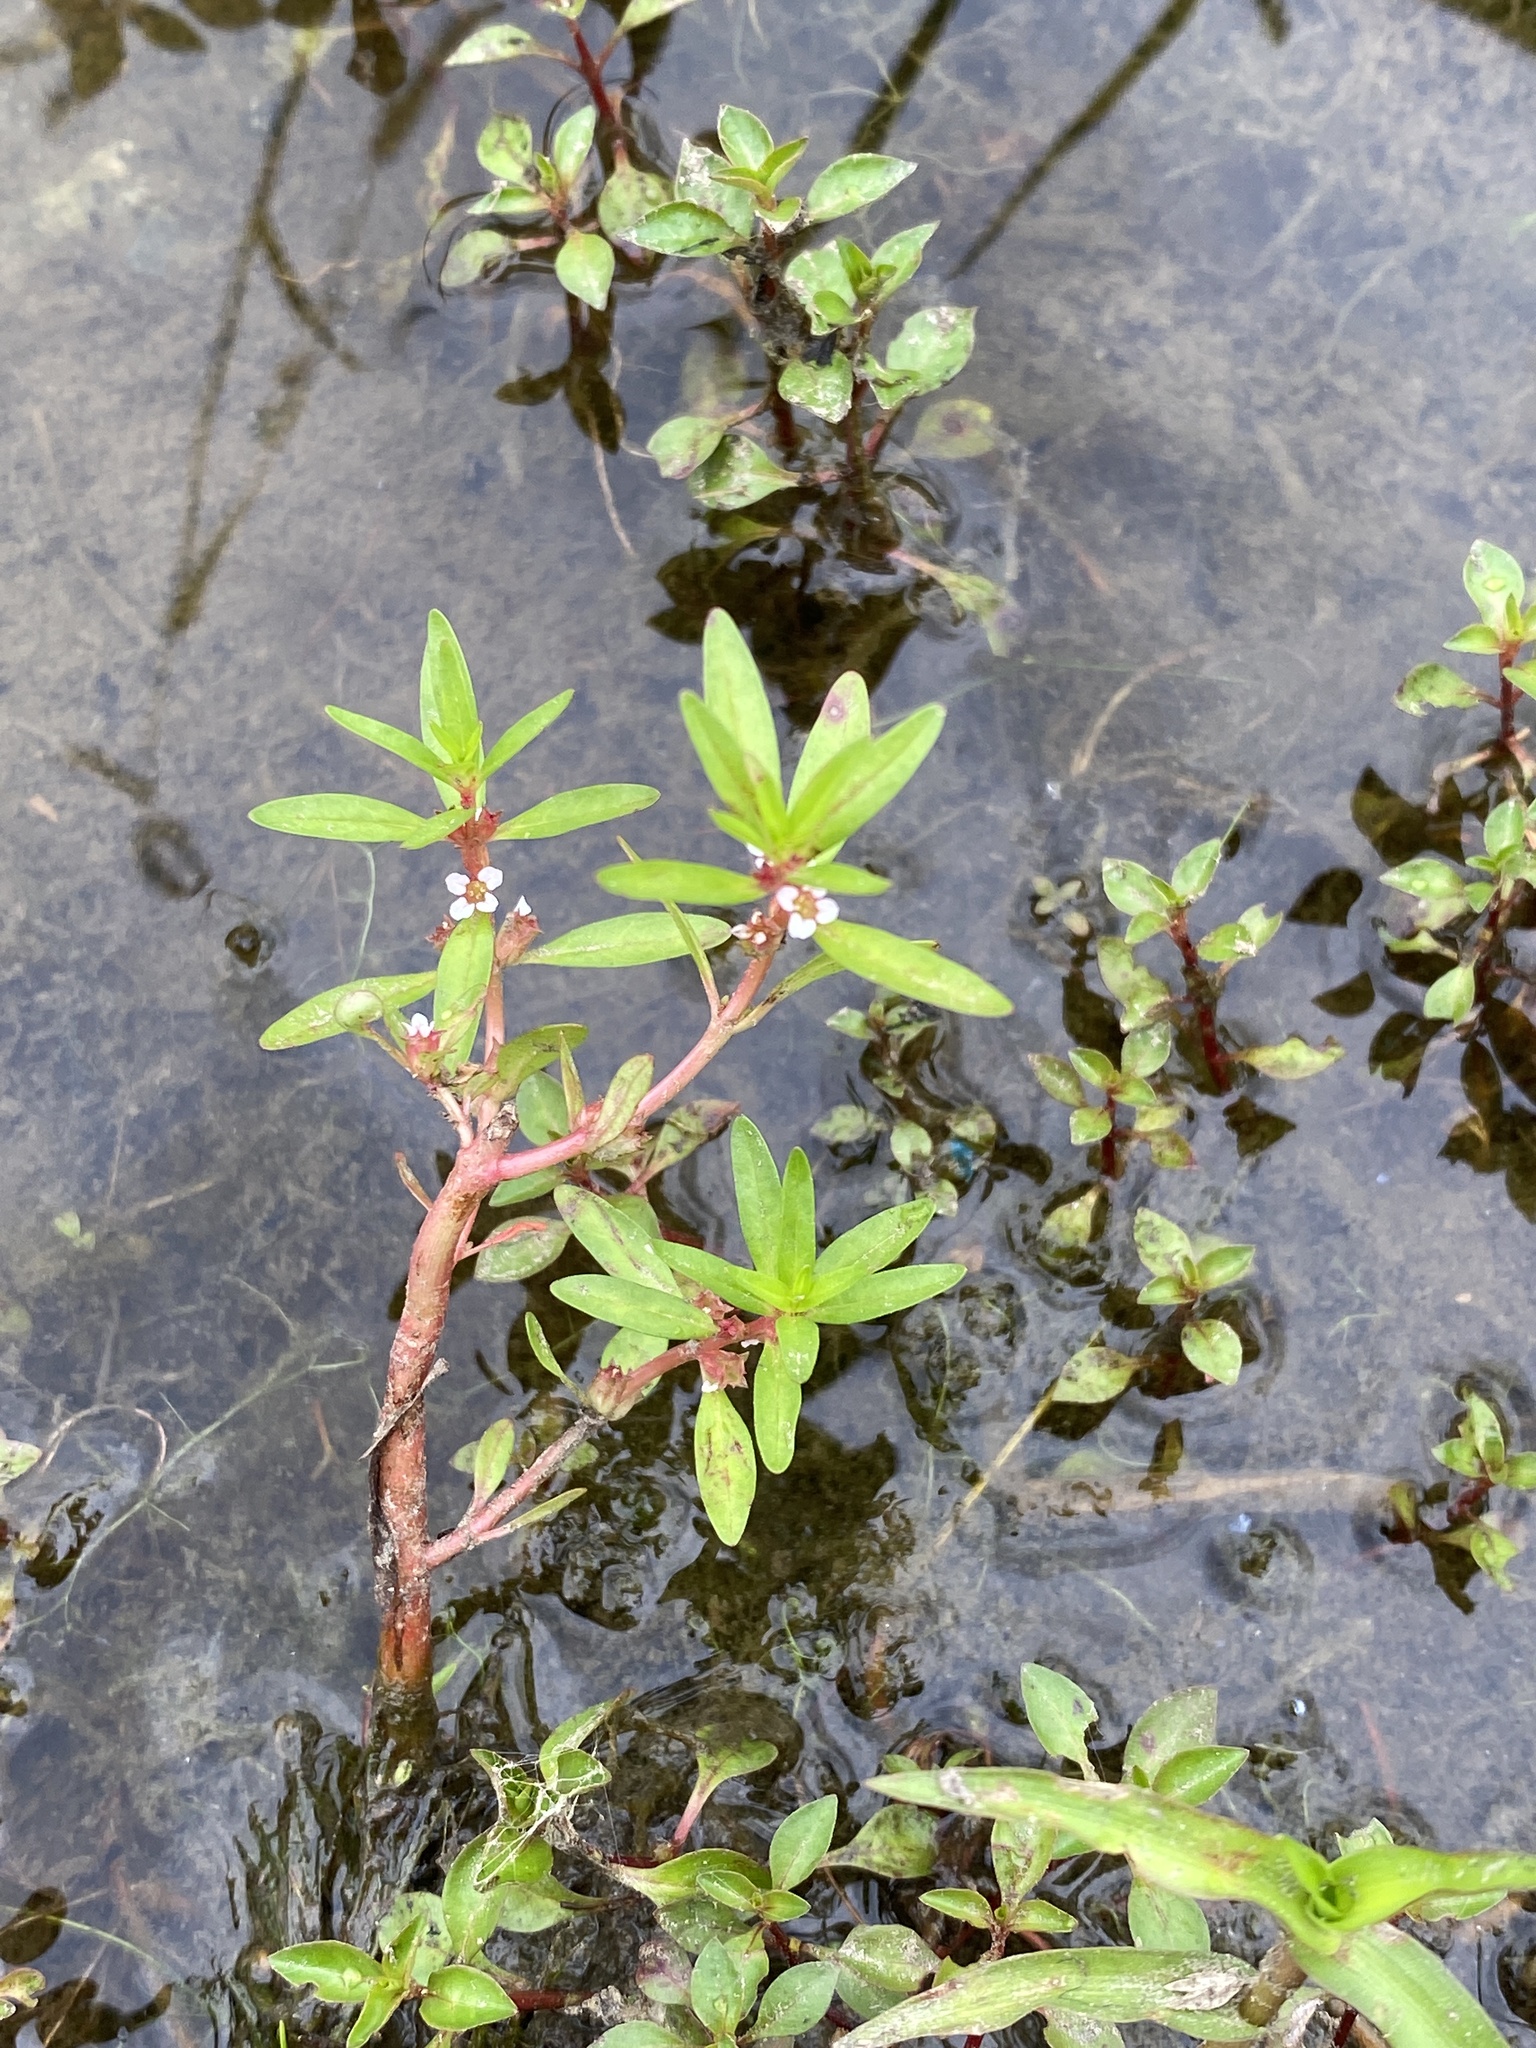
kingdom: Plantae
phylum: Tracheophyta
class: Magnoliopsida
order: Myrtales
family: Lythraceae
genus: Rotala
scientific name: Rotala ramosior
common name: Lowland rotala
